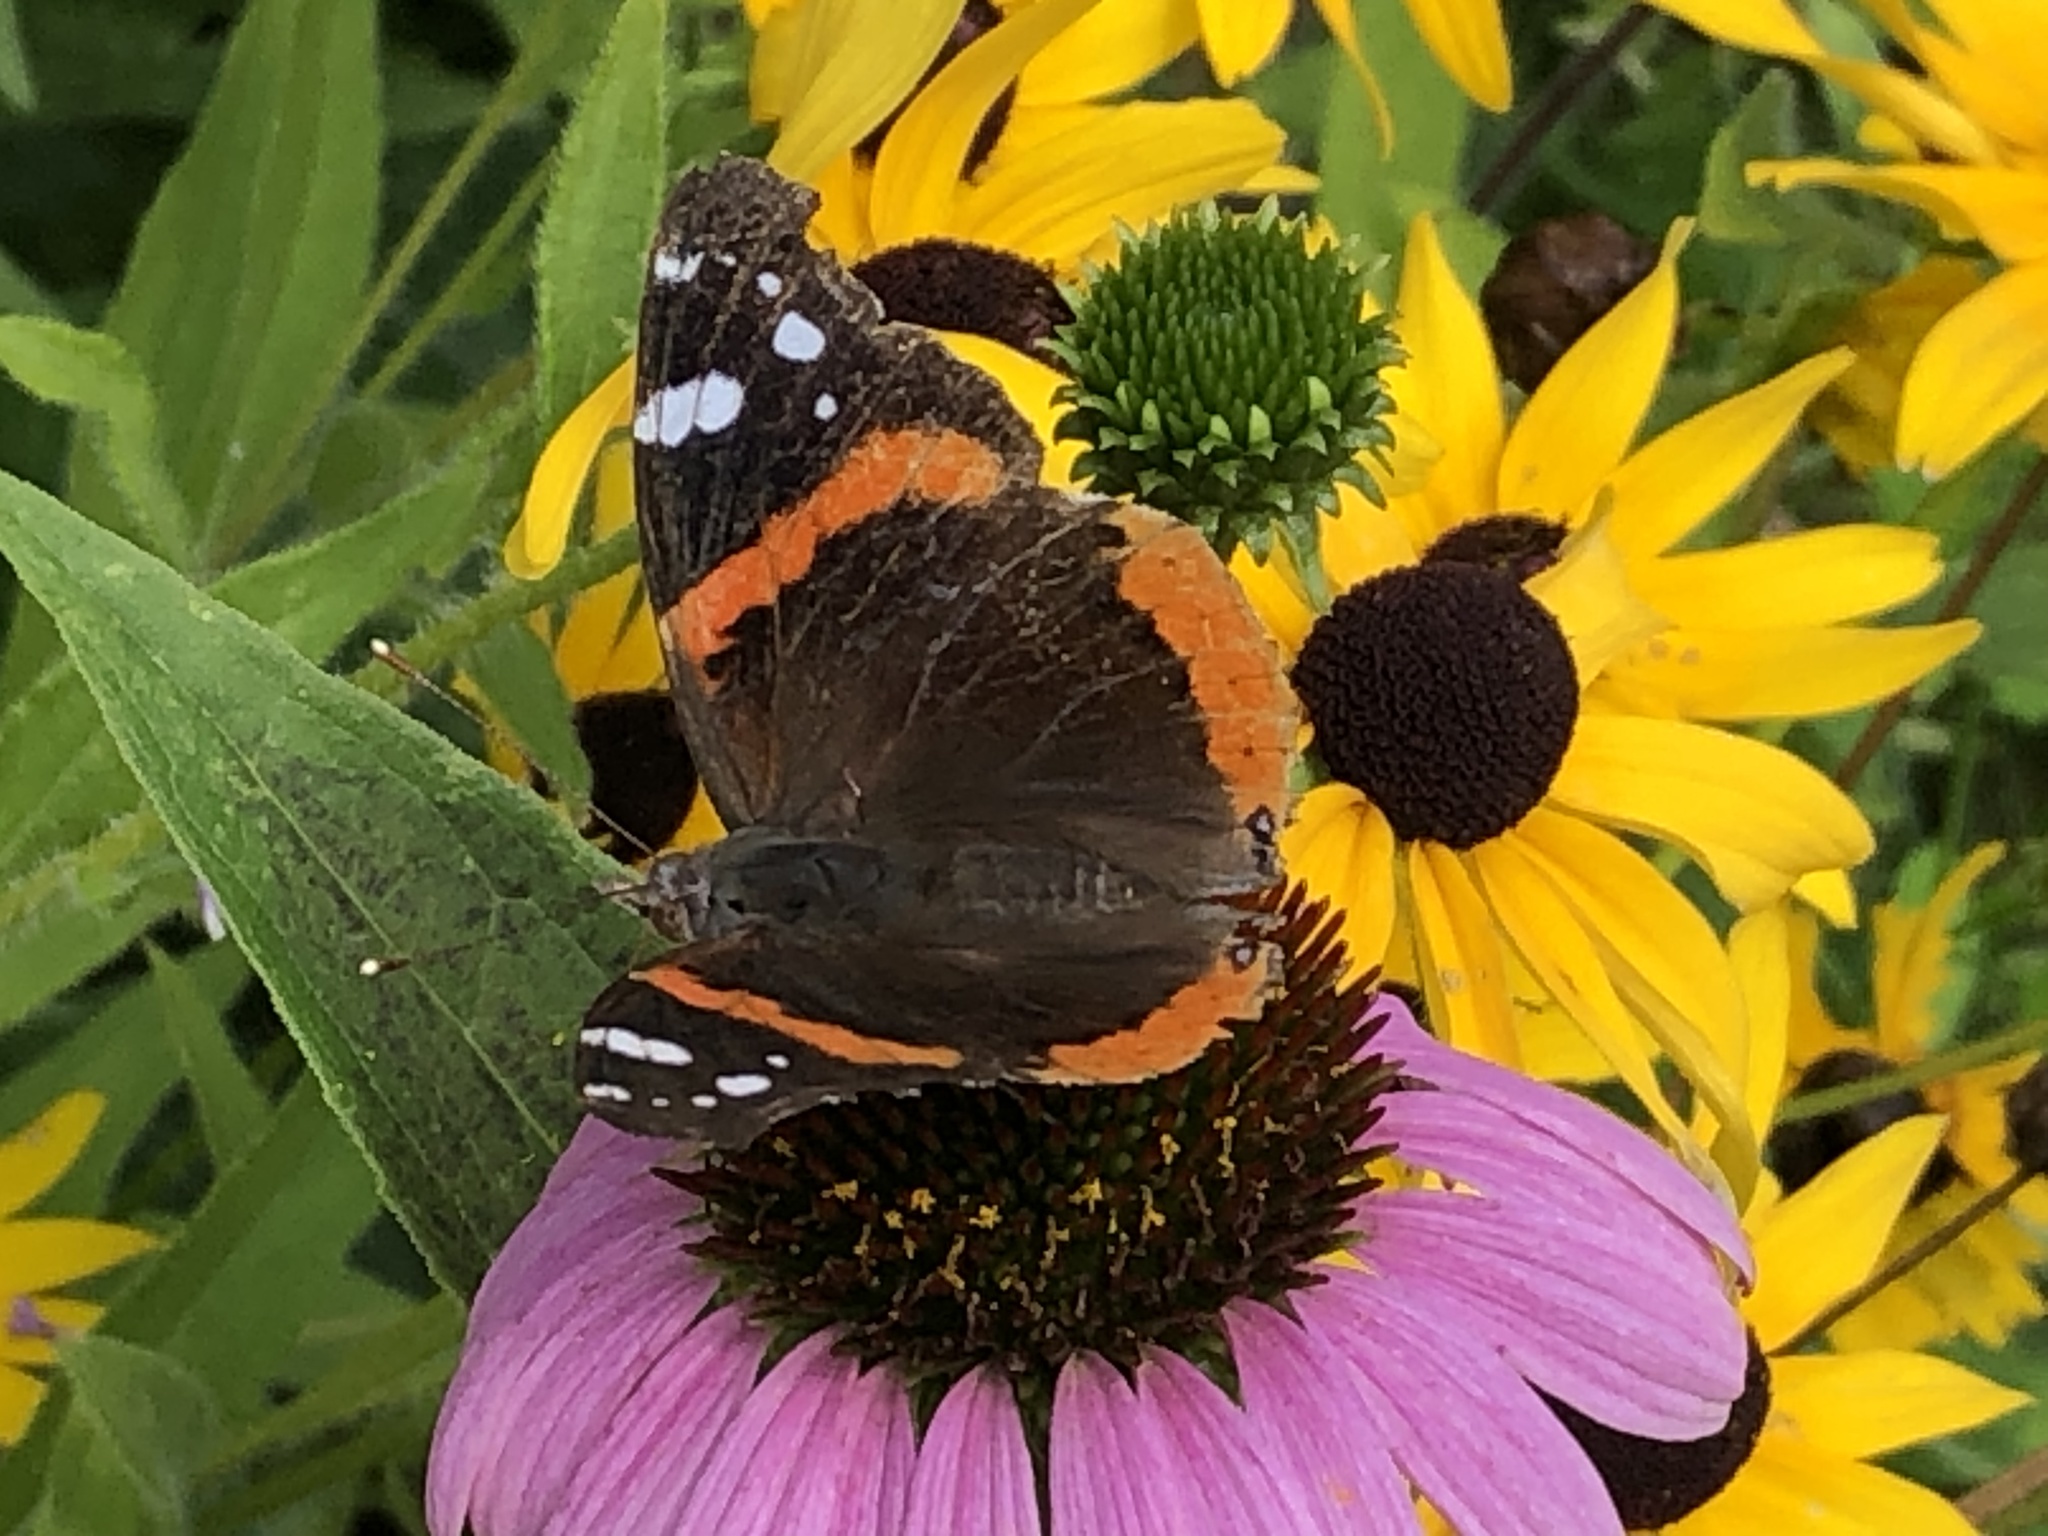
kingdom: Animalia
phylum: Arthropoda
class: Insecta
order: Lepidoptera
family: Nymphalidae
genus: Vanessa
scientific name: Vanessa atalanta
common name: Red admiral
